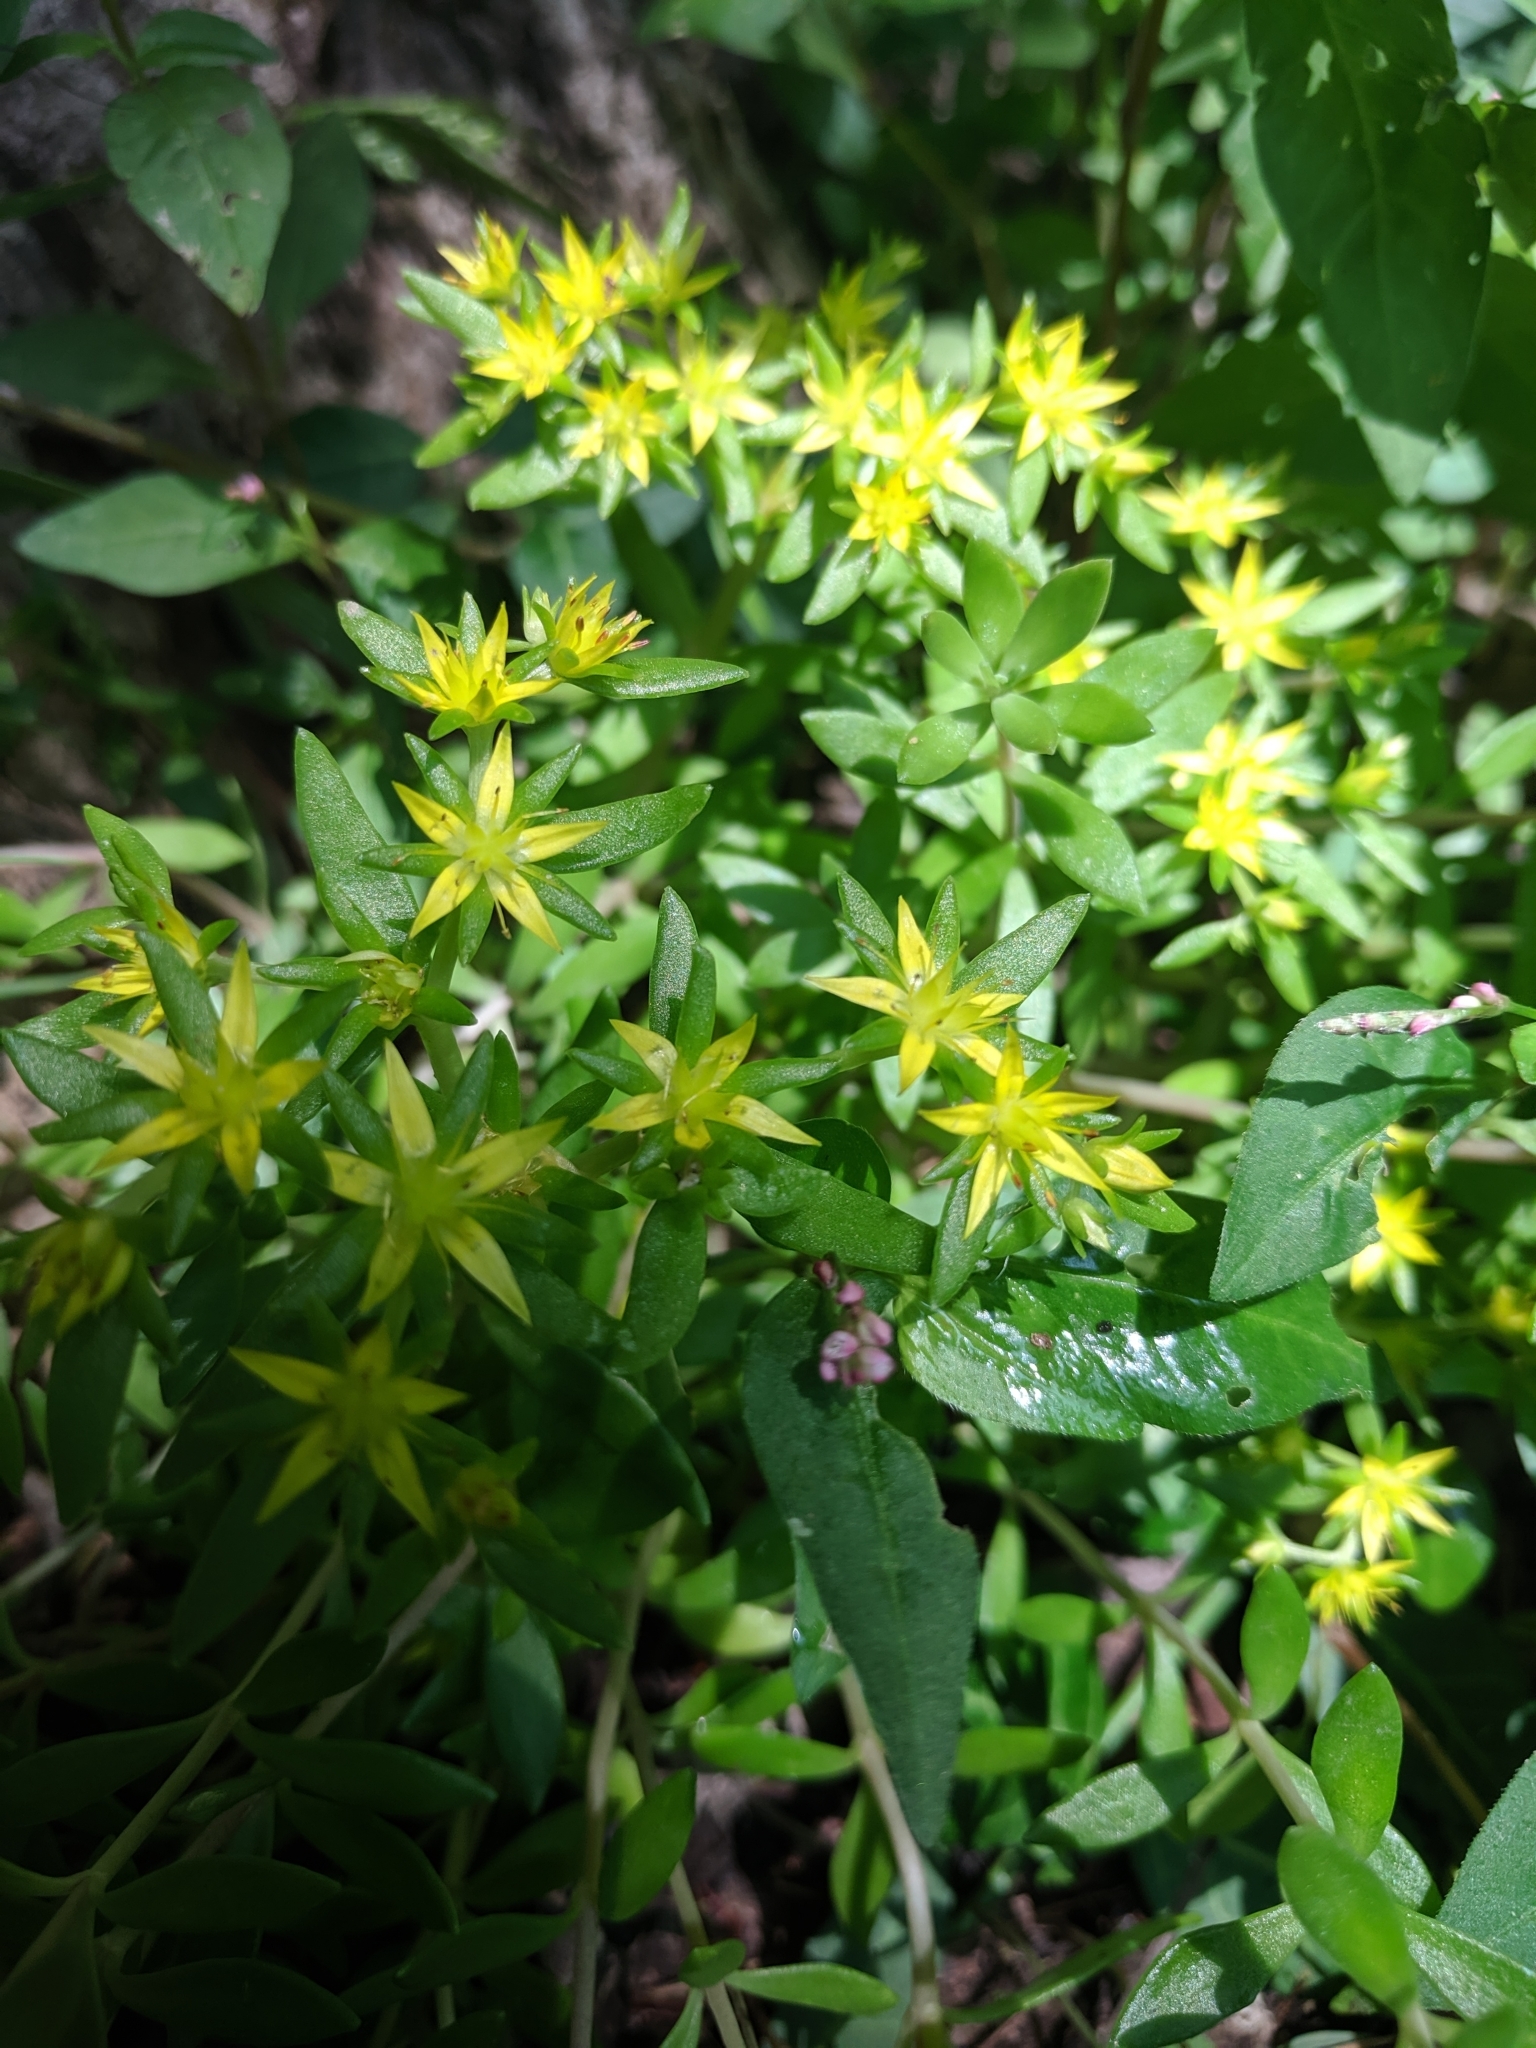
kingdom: Plantae
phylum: Tracheophyta
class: Magnoliopsida
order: Saxifragales
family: Crassulaceae
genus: Sedum
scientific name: Sedum sarmentosum
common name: Stringy stonecrop
